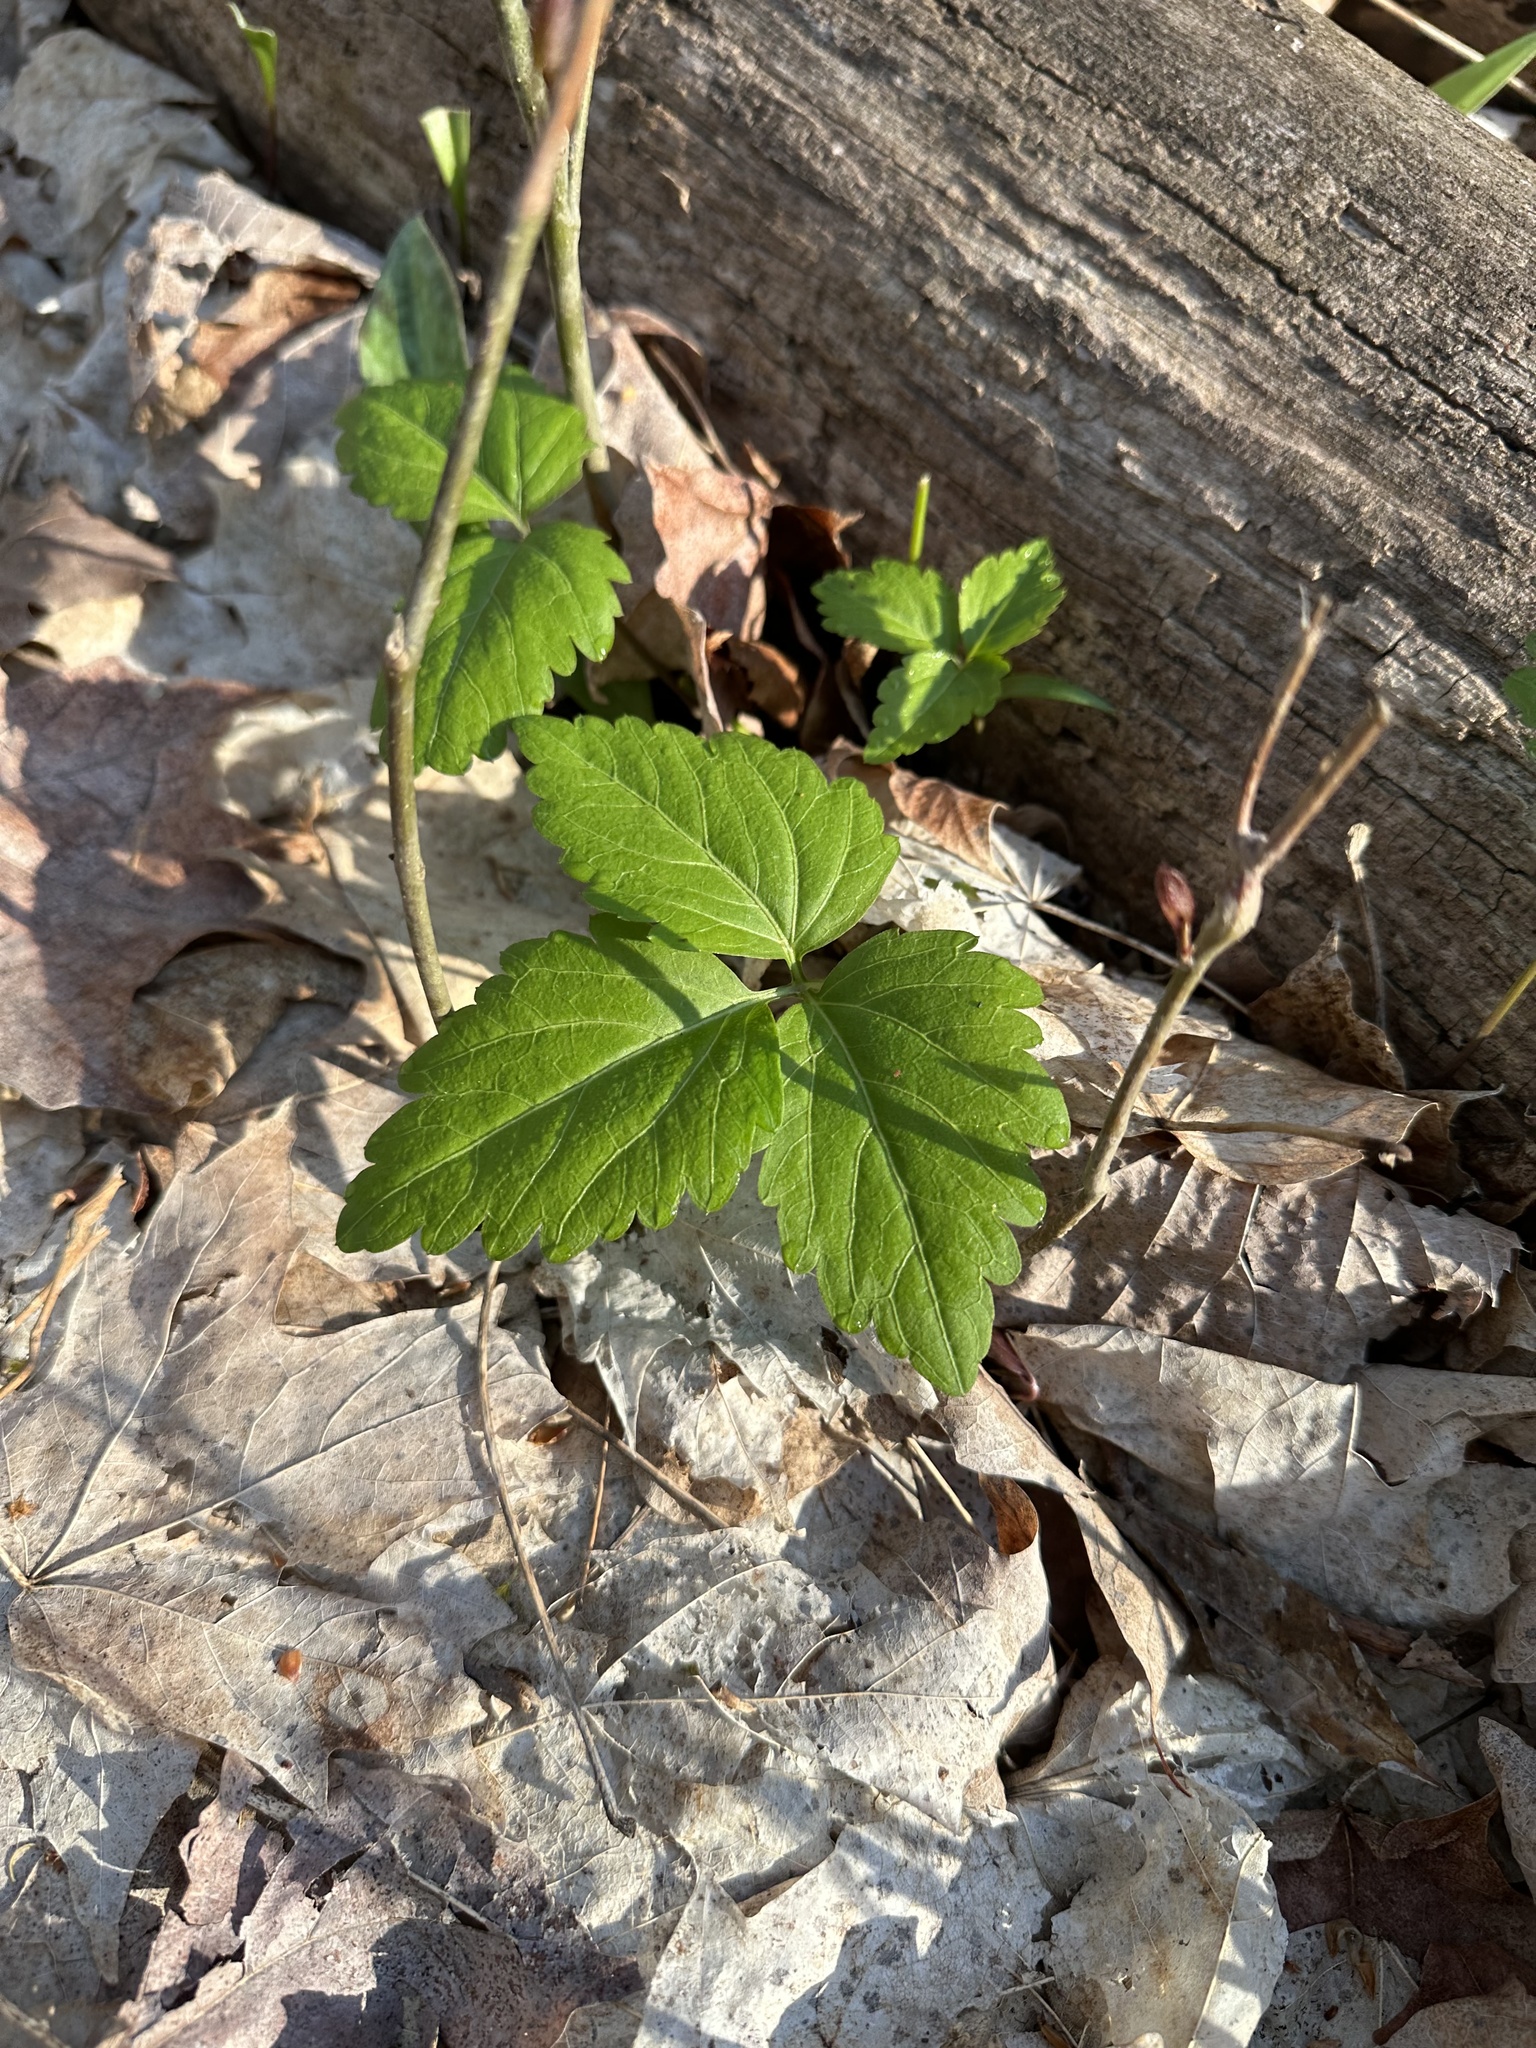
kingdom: Plantae
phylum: Tracheophyta
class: Magnoliopsida
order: Brassicales
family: Brassicaceae
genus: Cardamine
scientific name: Cardamine diphylla
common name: Broad-leaved toothwort
